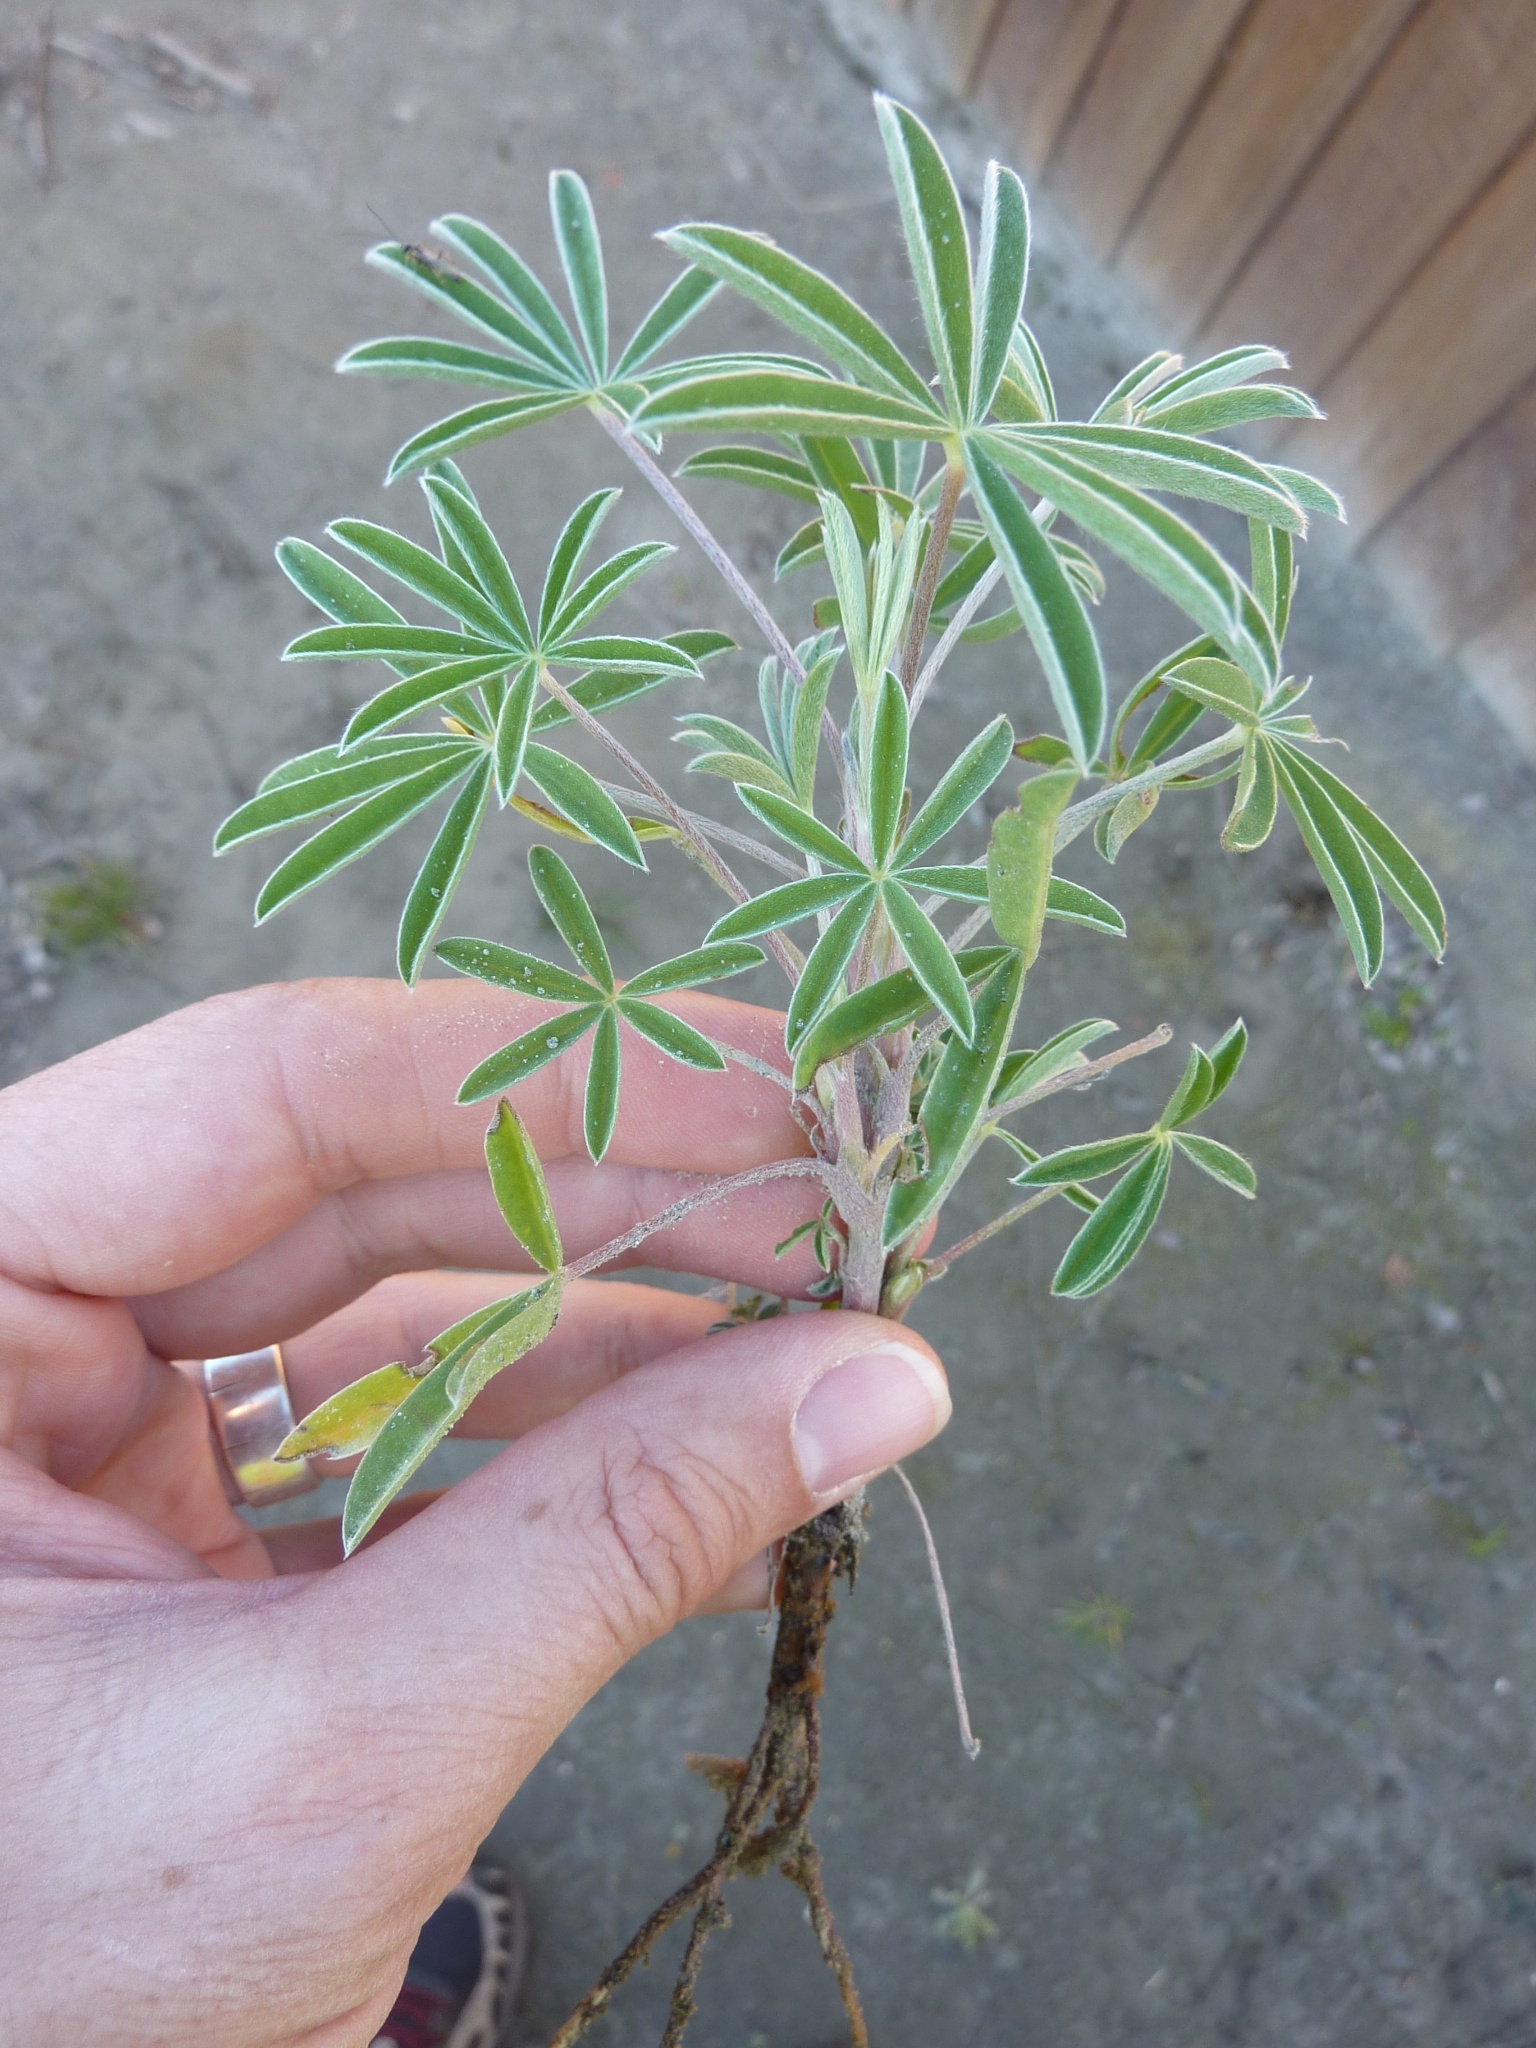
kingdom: Plantae
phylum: Tracheophyta
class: Magnoliopsida
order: Fabales
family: Fabaceae
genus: Lupinus
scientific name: Lupinus arboreus
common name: Yellow bush lupine
